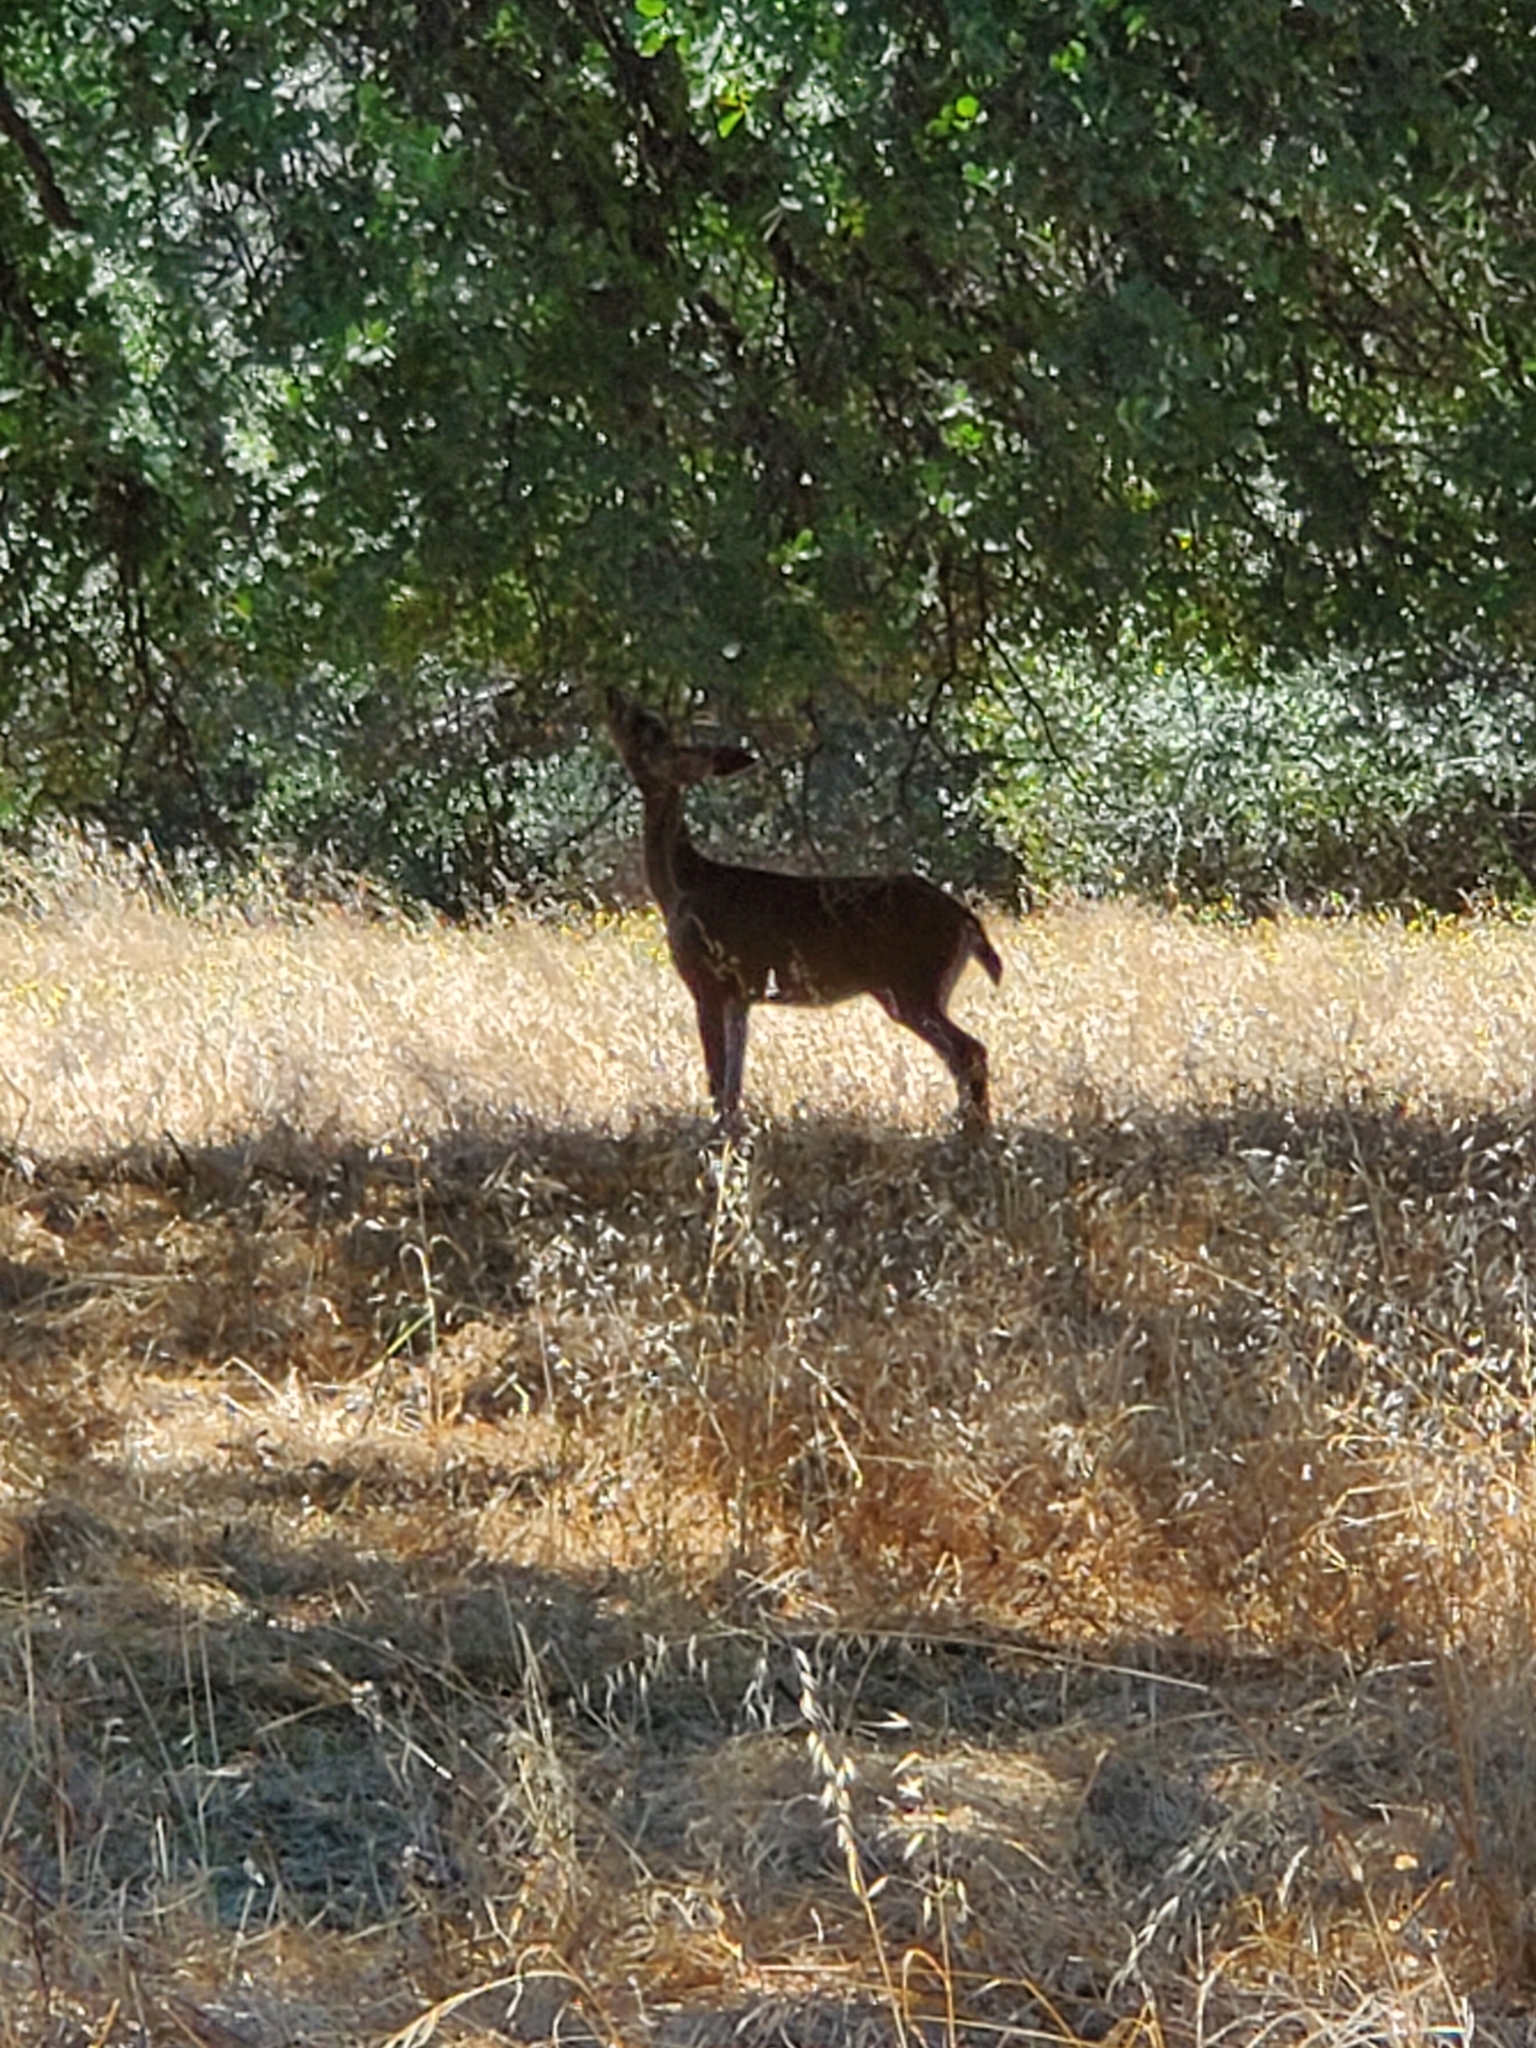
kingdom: Animalia
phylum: Chordata
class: Mammalia
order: Artiodactyla
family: Cervidae
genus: Odocoileus
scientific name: Odocoileus hemionus
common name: Mule deer
